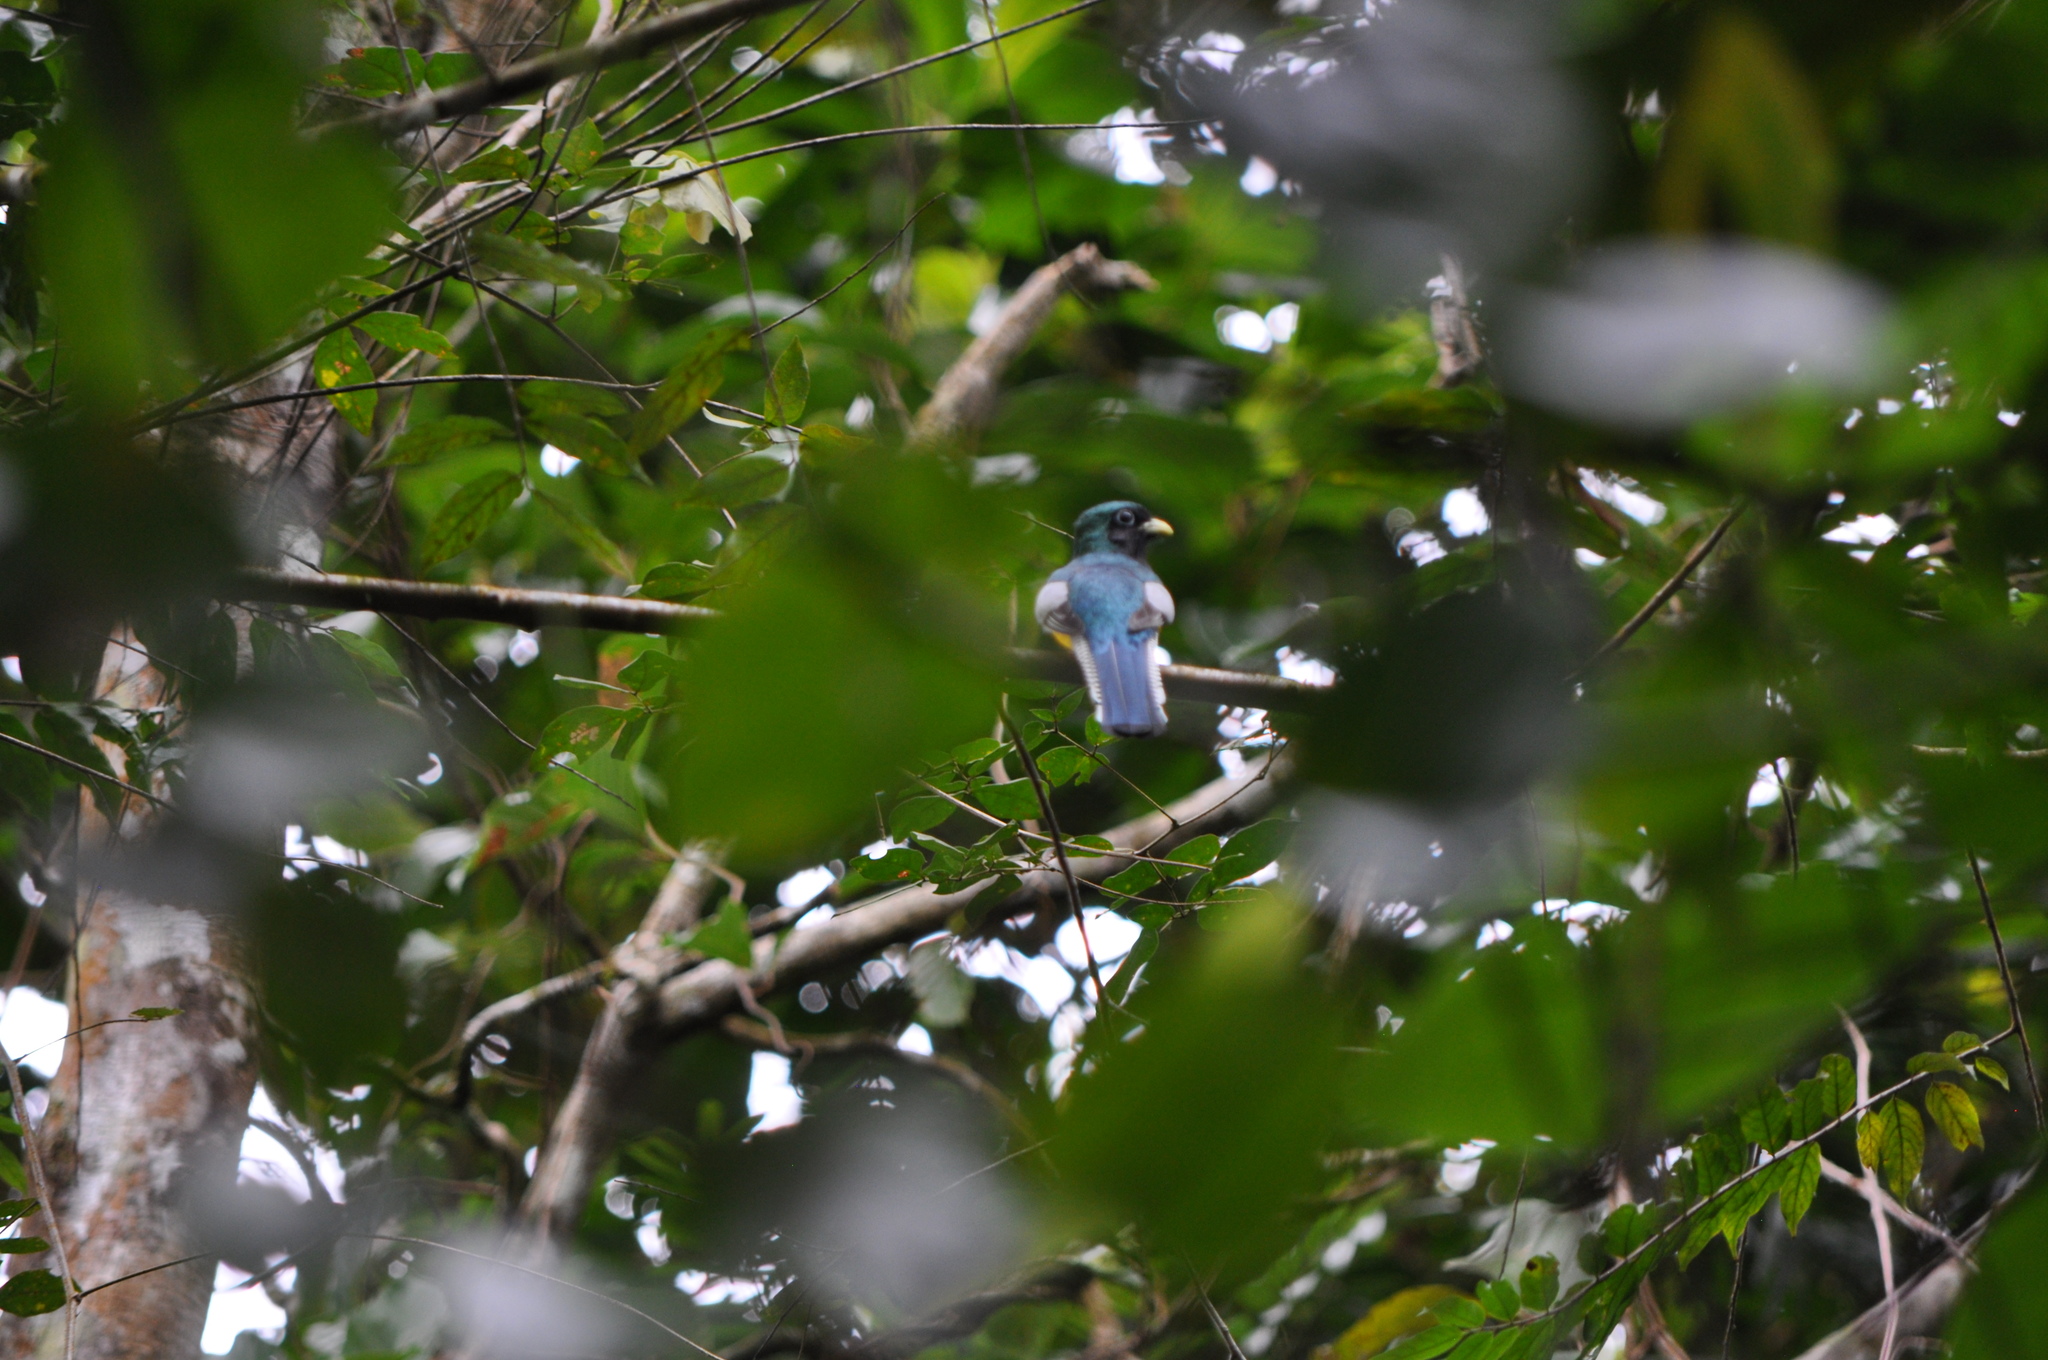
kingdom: Animalia
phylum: Chordata
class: Aves
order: Trogoniformes
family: Trogonidae
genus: Trogon
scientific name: Trogon rufus
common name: Black-throated trogon
